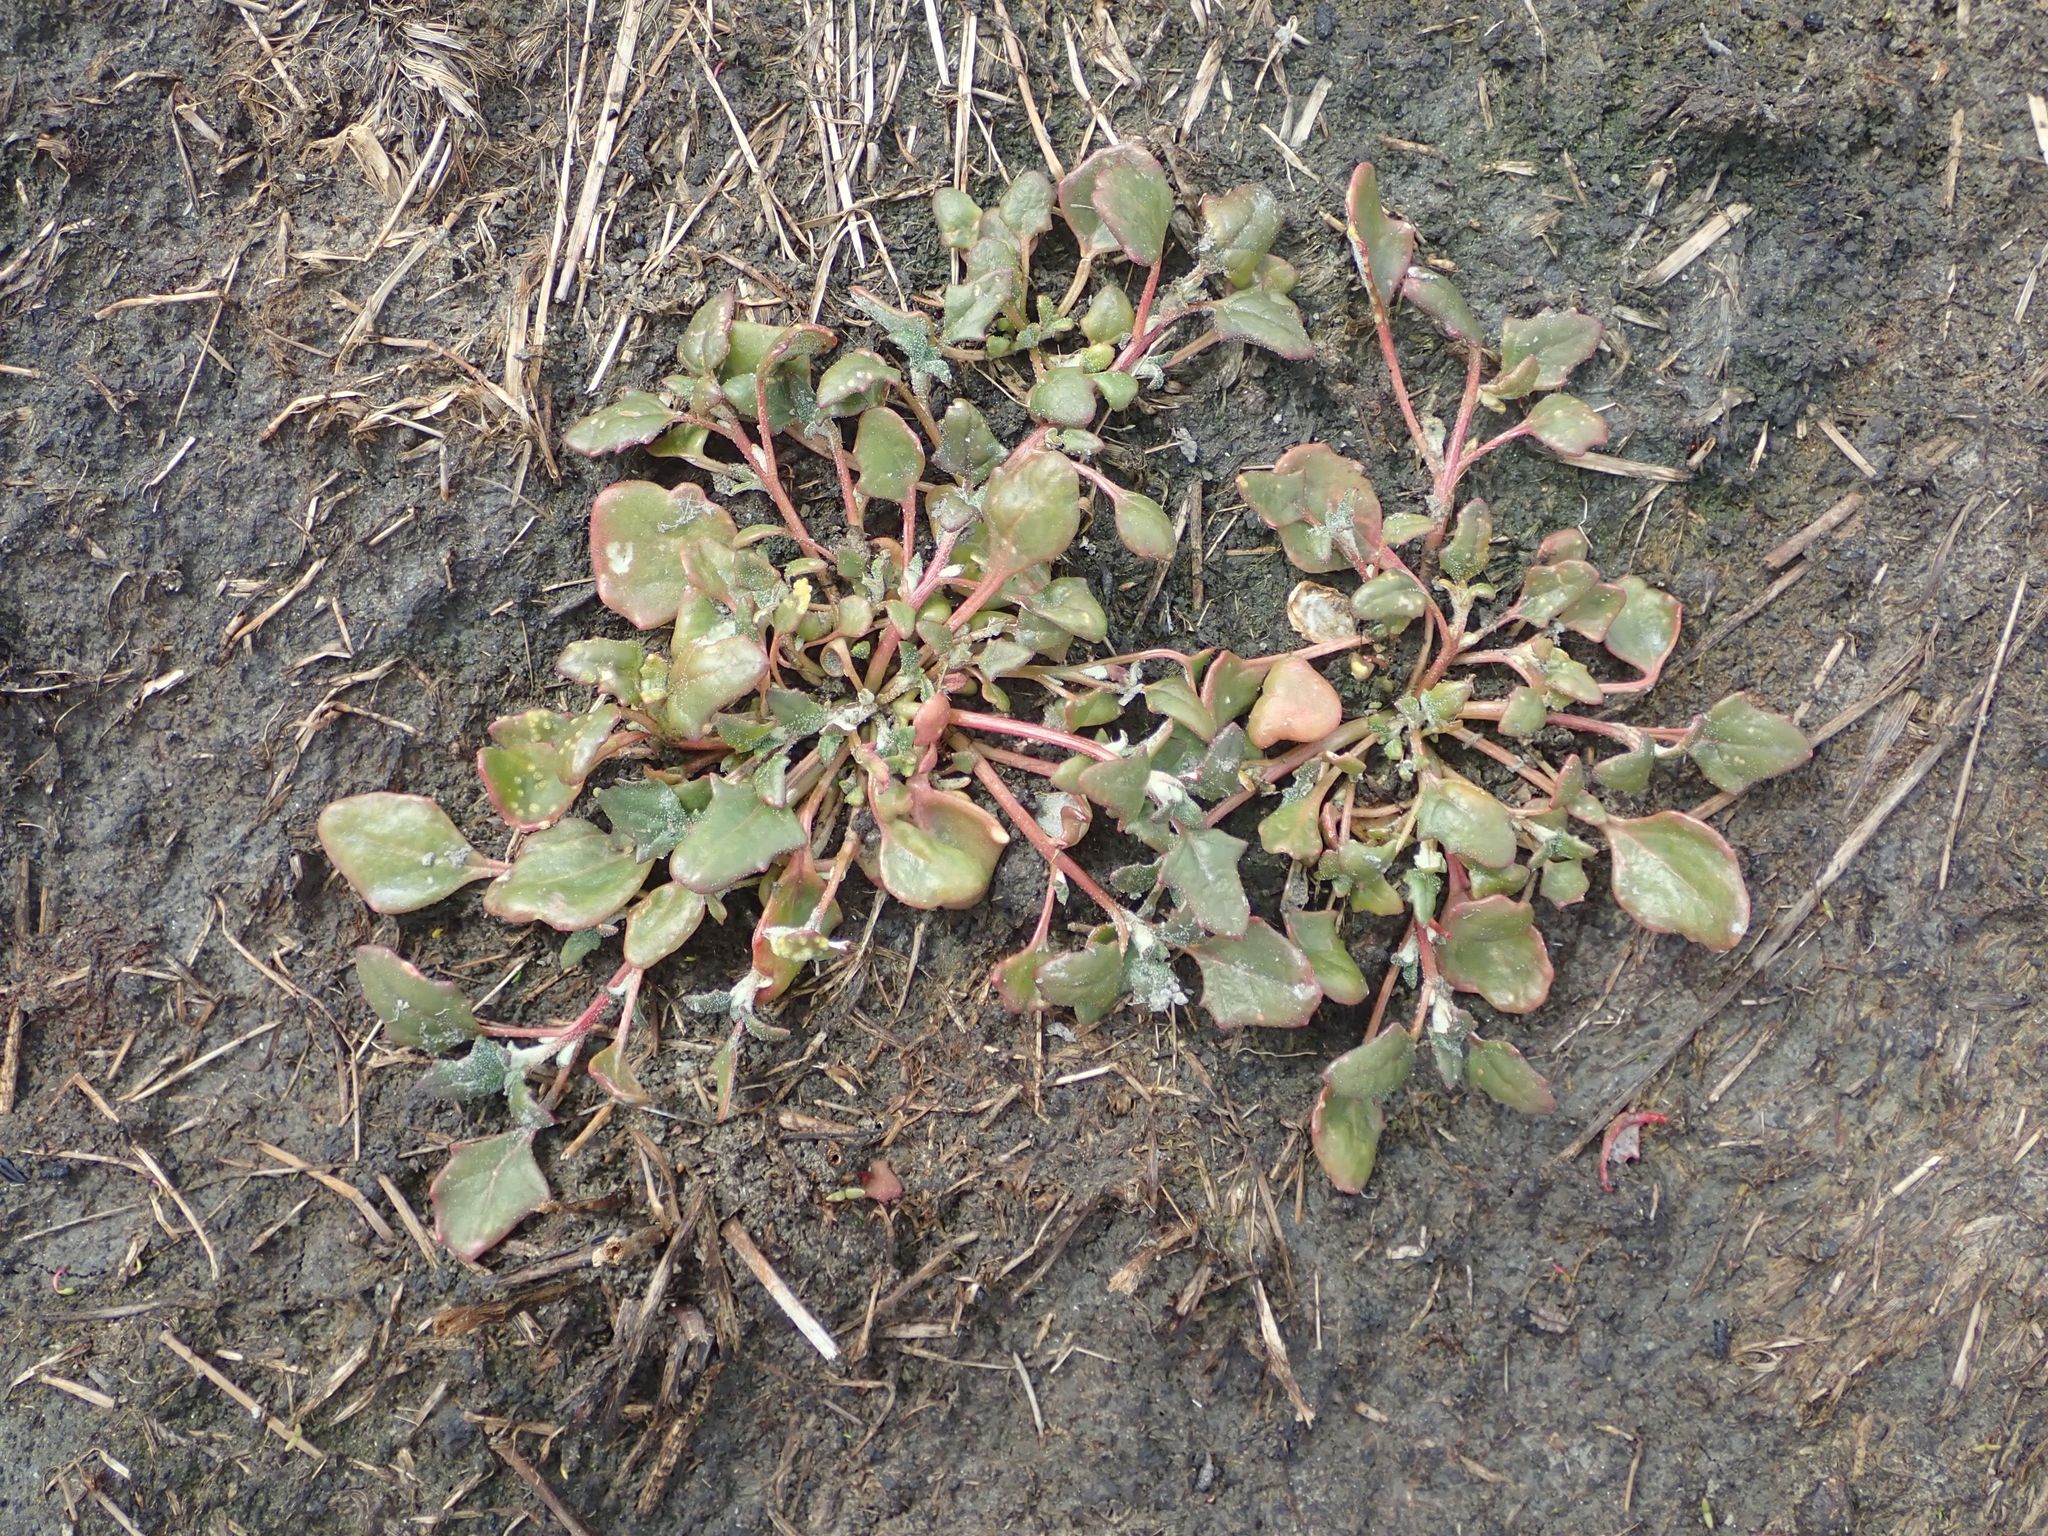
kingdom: Plantae
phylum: Tracheophyta
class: Magnoliopsida
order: Caryophyllales
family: Amaranthaceae
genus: Oxybasis
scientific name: Oxybasis ambigua
